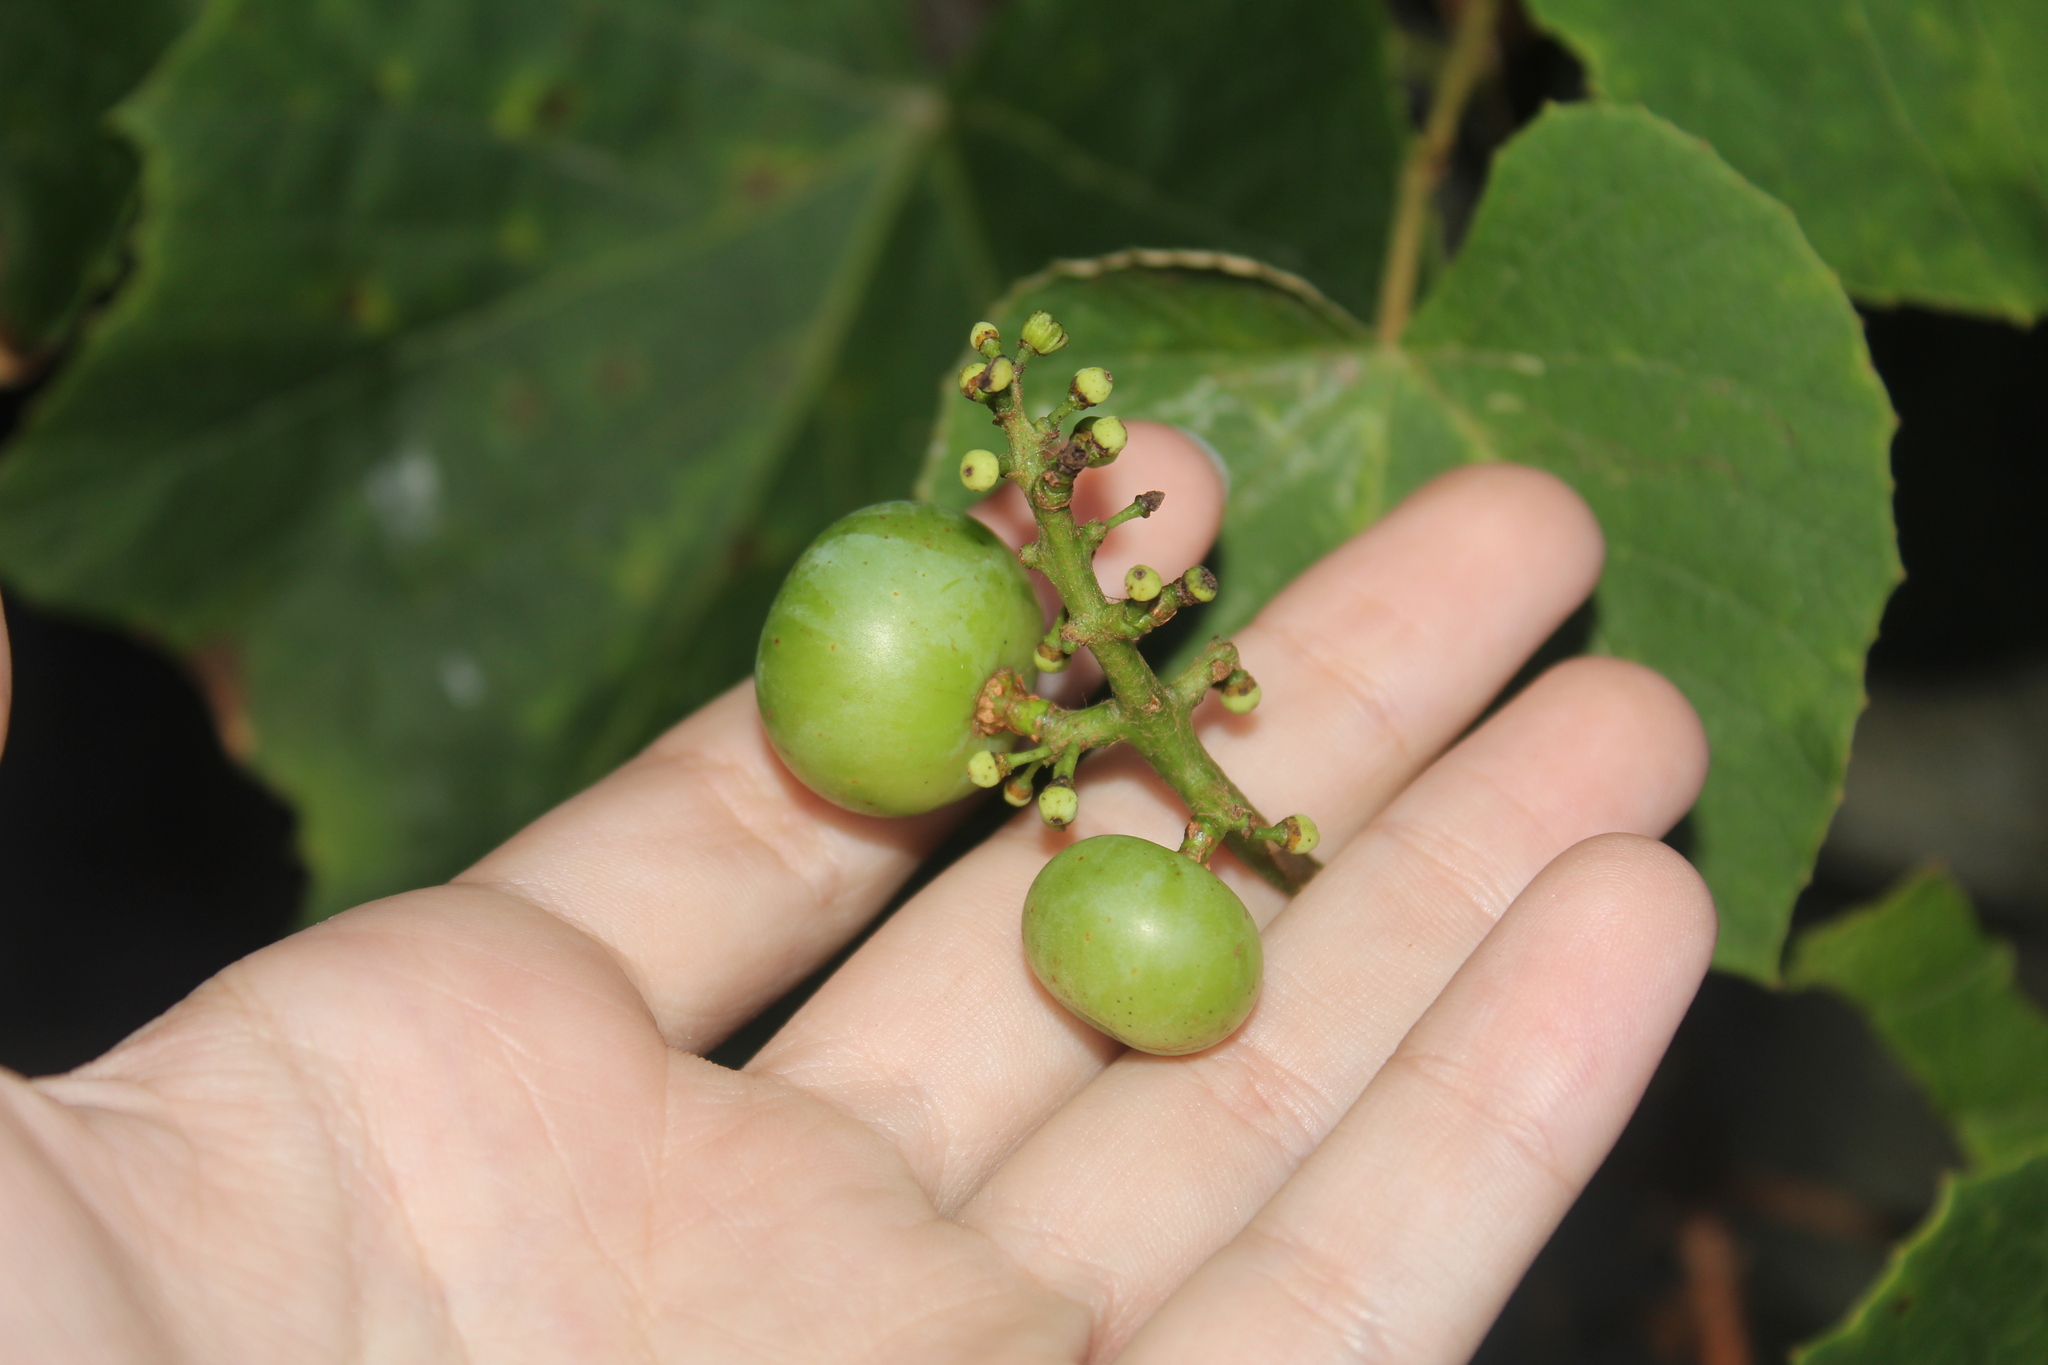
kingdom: Plantae
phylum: Tracheophyta
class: Magnoliopsida
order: Vitales
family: Vitaceae
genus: Vitis
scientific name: Vitis labrusca
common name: Concord grape
